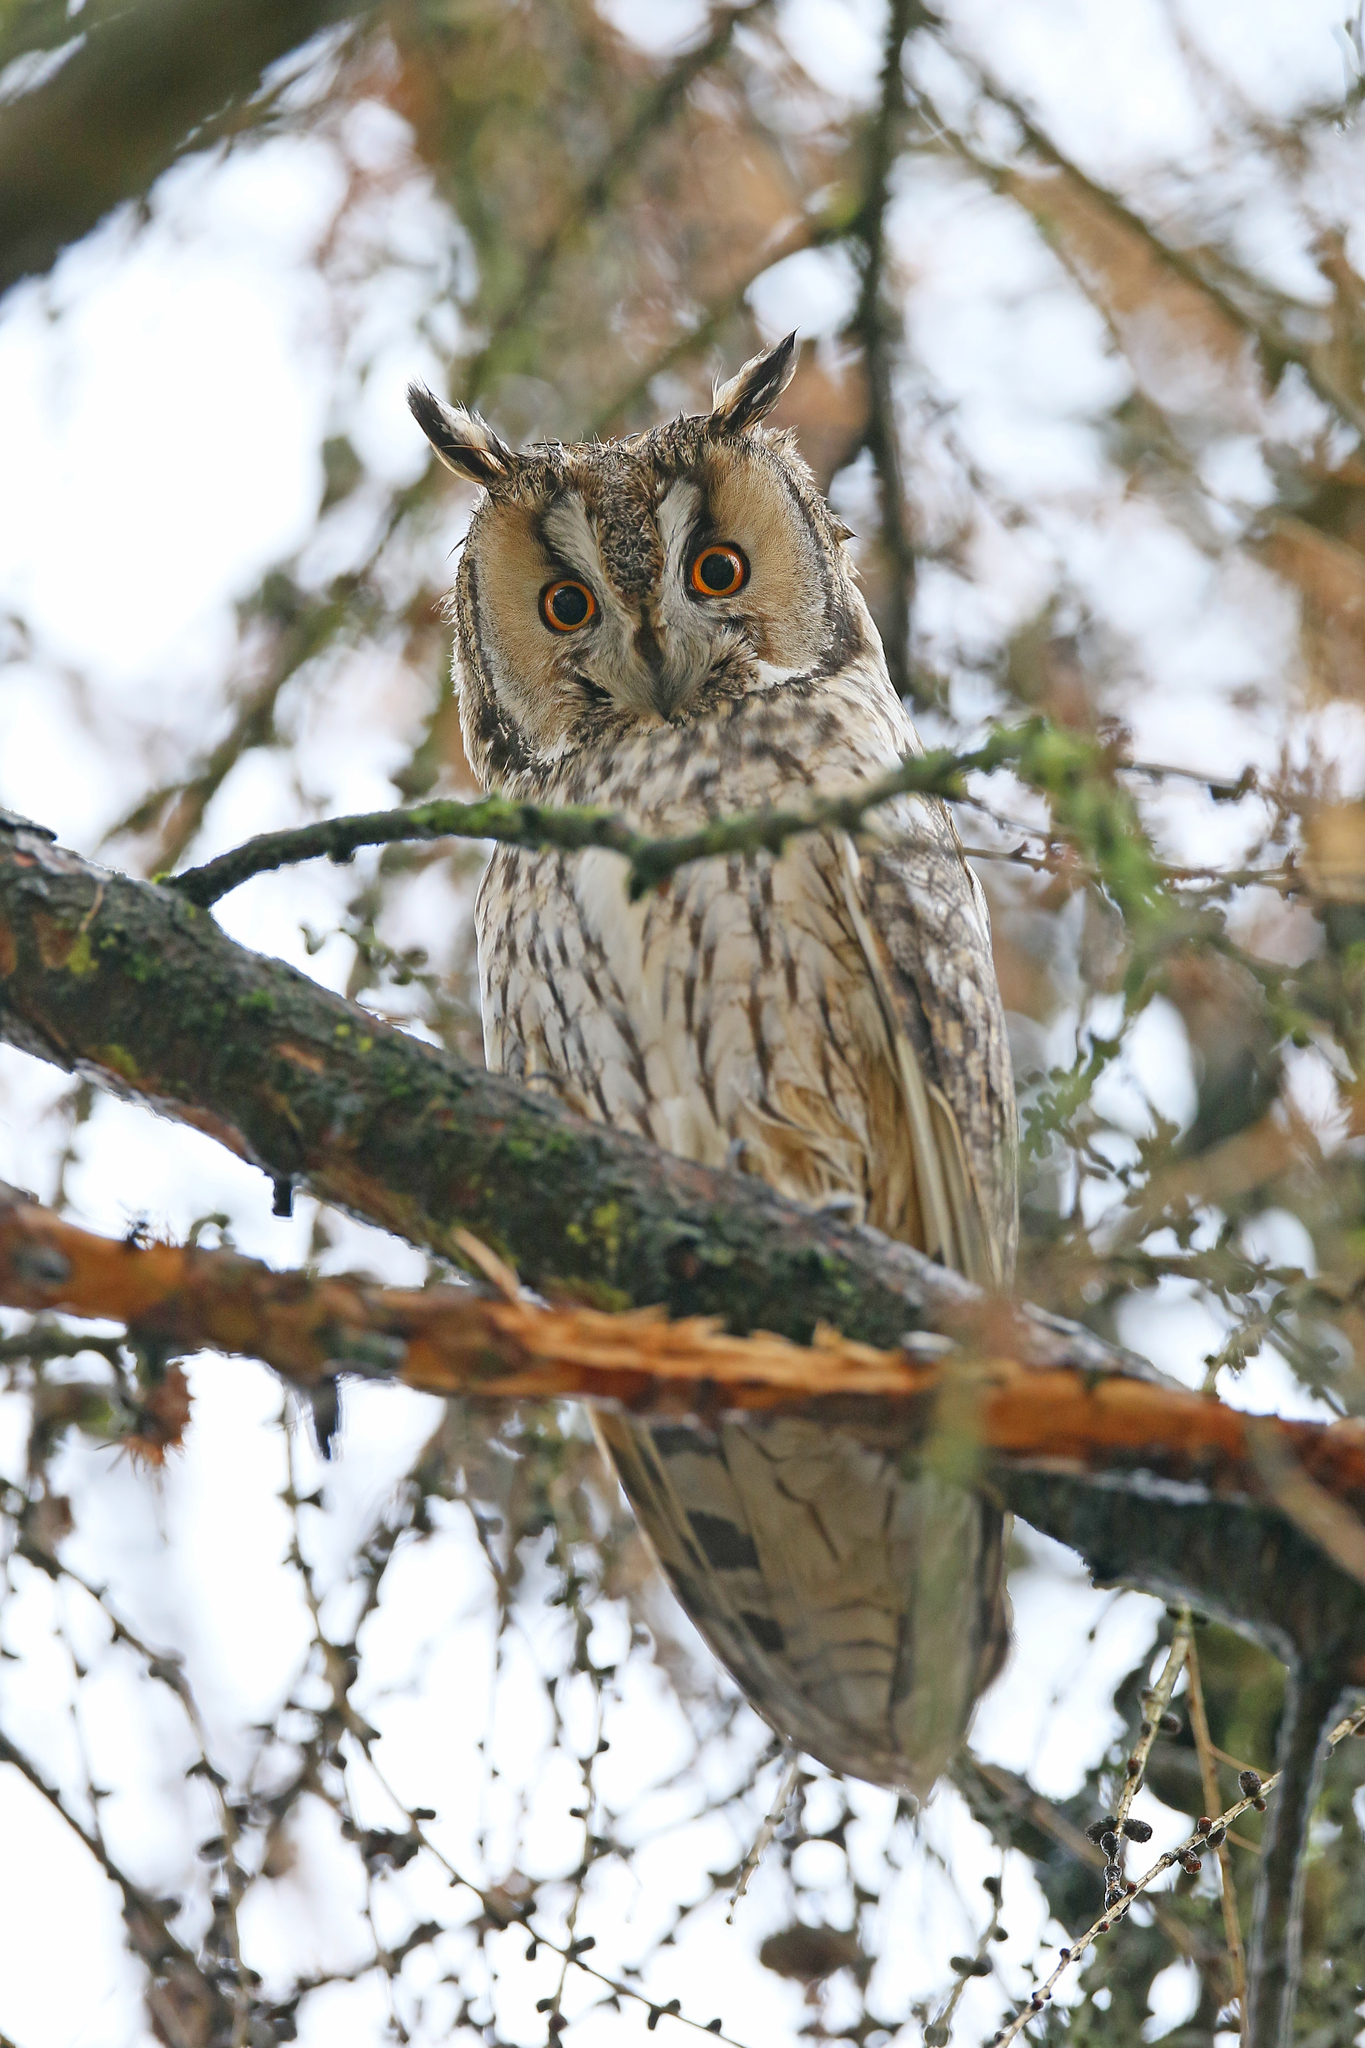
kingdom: Animalia
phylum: Chordata
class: Aves
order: Strigiformes
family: Strigidae
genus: Asio
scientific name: Asio otus
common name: Long-eared owl
